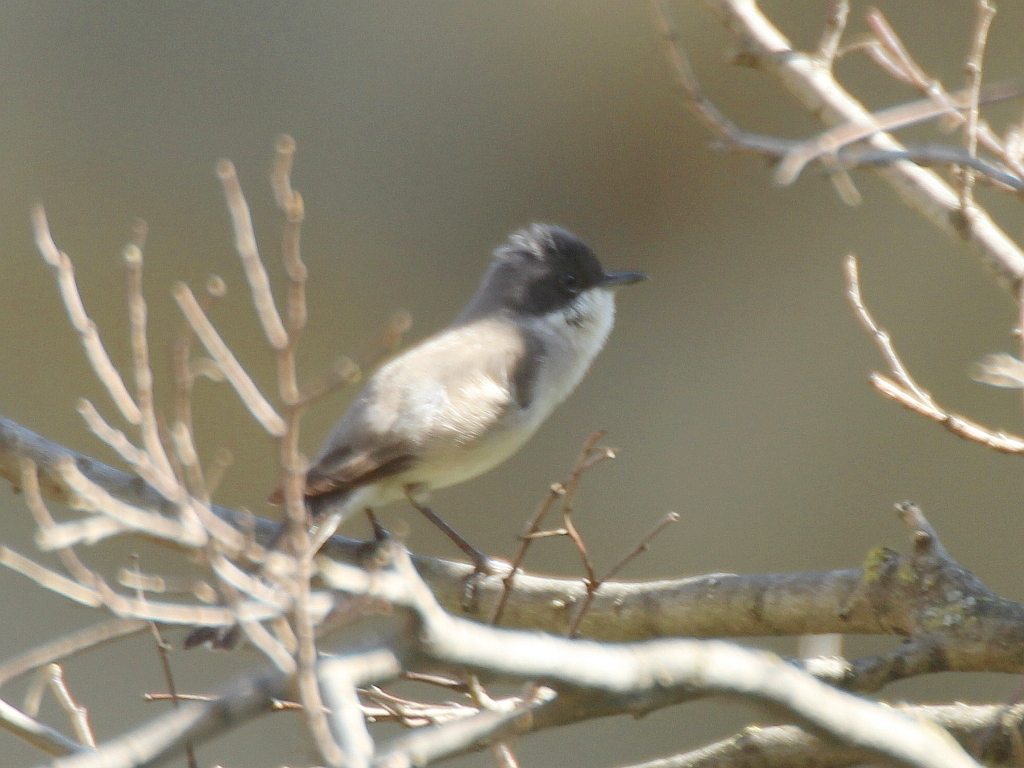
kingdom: Animalia
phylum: Chordata
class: Aves
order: Passeriformes
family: Sylviidae
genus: Sylvia
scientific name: Sylvia curruca
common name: Lesser whitethroat
